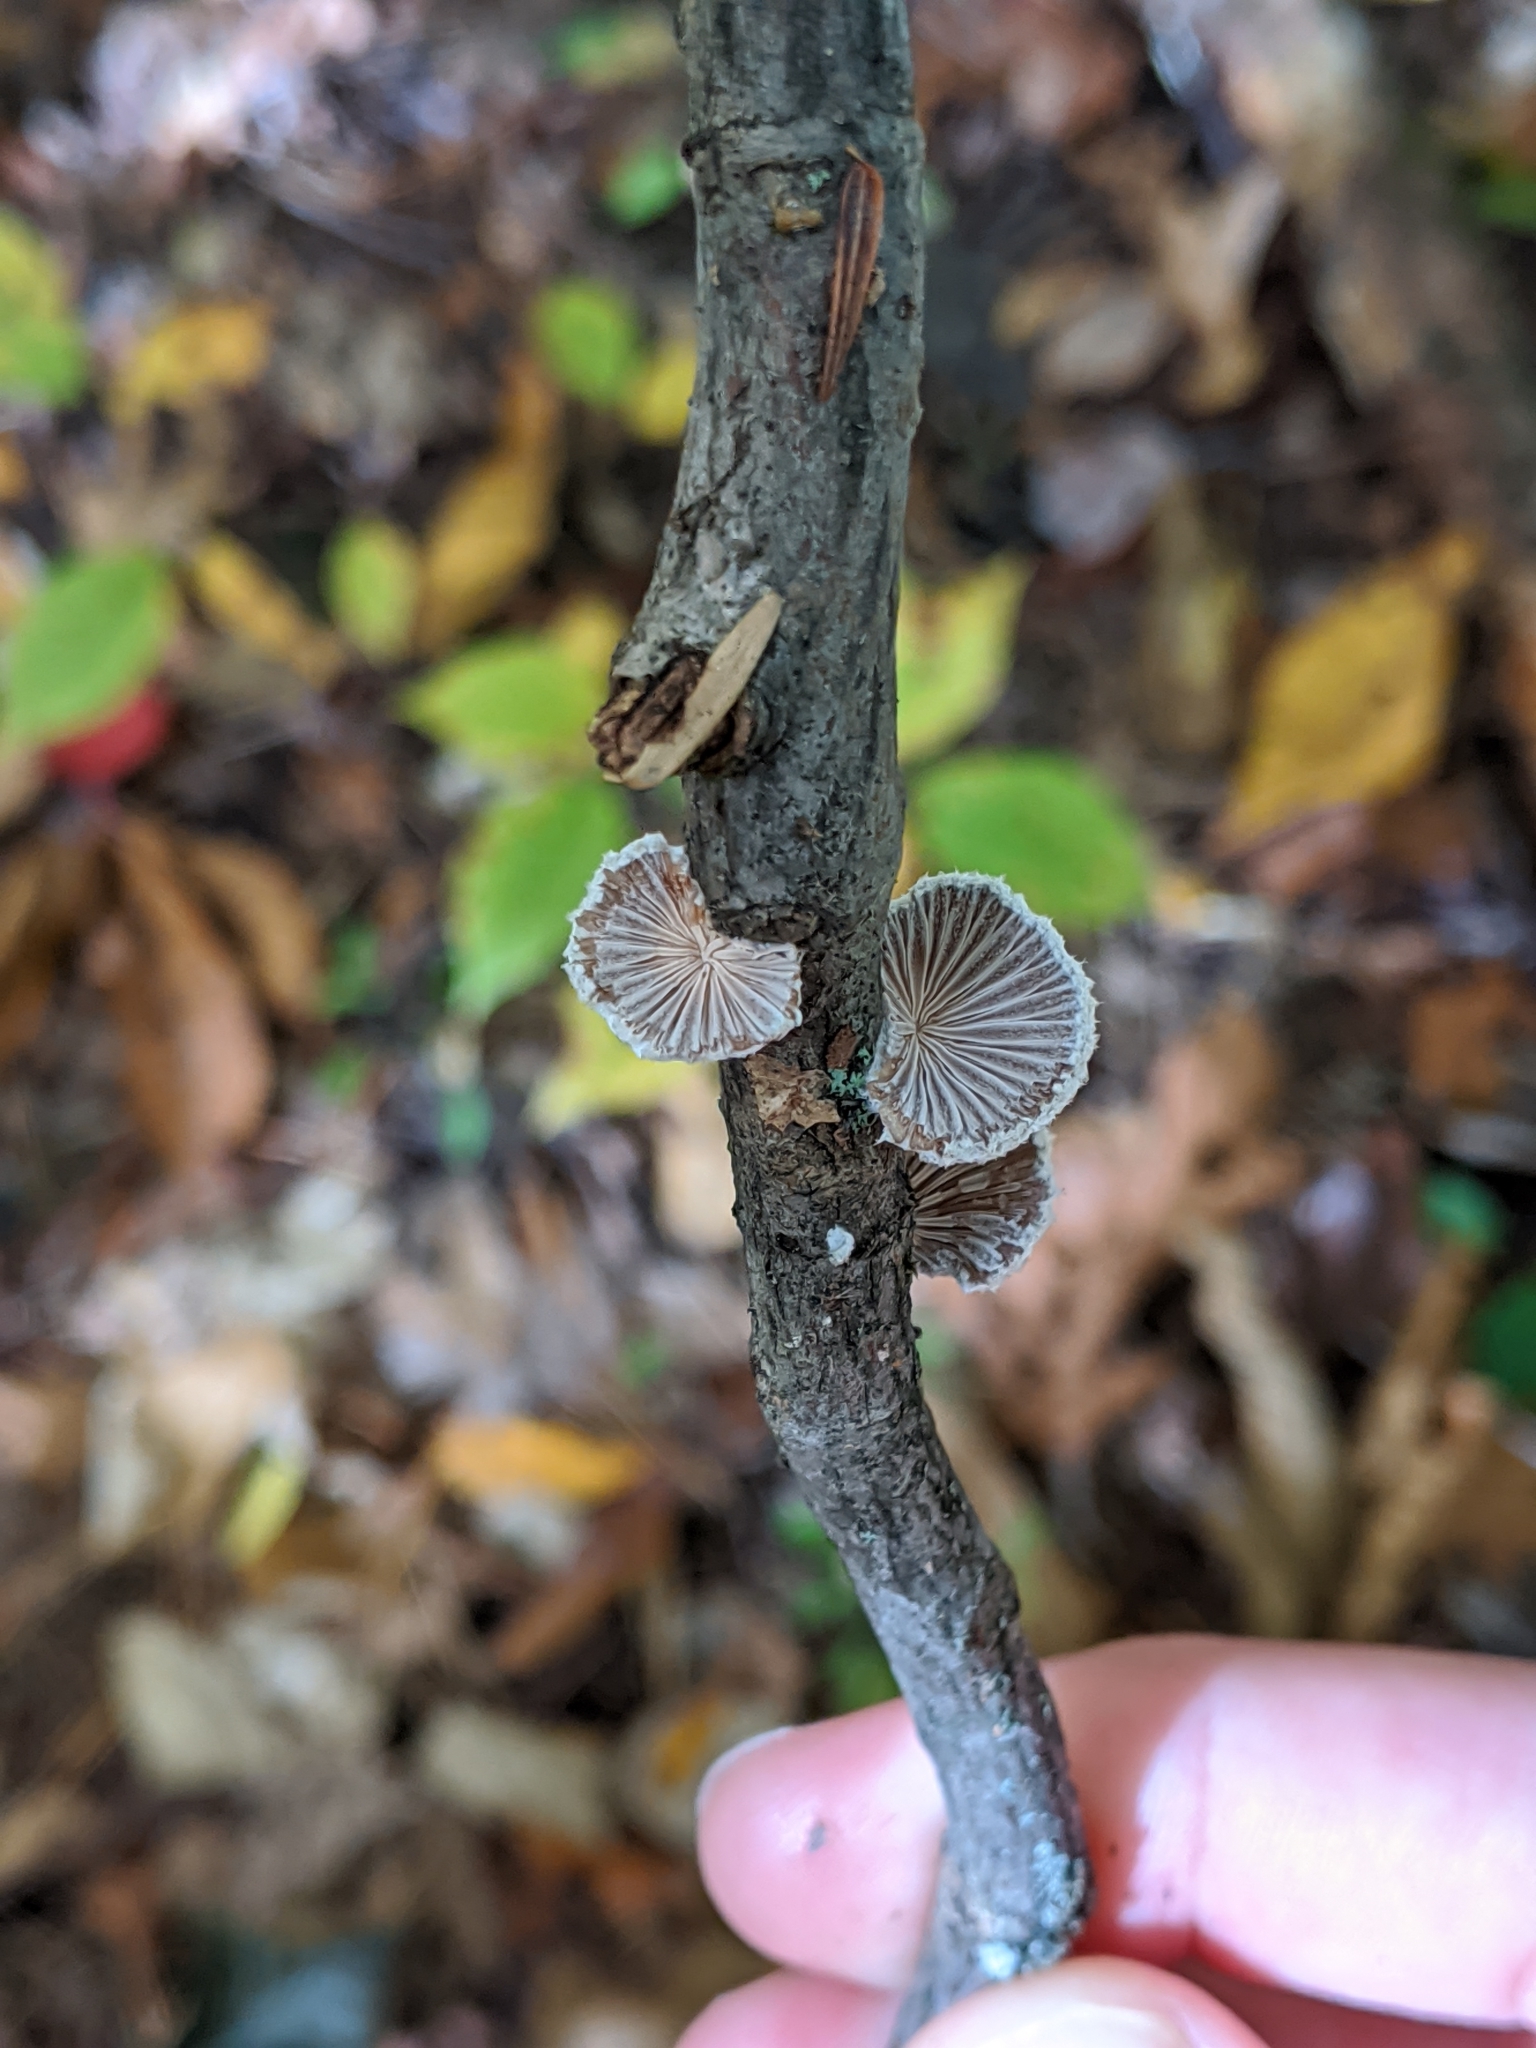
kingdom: Fungi
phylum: Basidiomycota
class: Agaricomycetes
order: Agaricales
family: Schizophyllaceae
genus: Schizophyllum
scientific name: Schizophyllum commune
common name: Common porecrust
